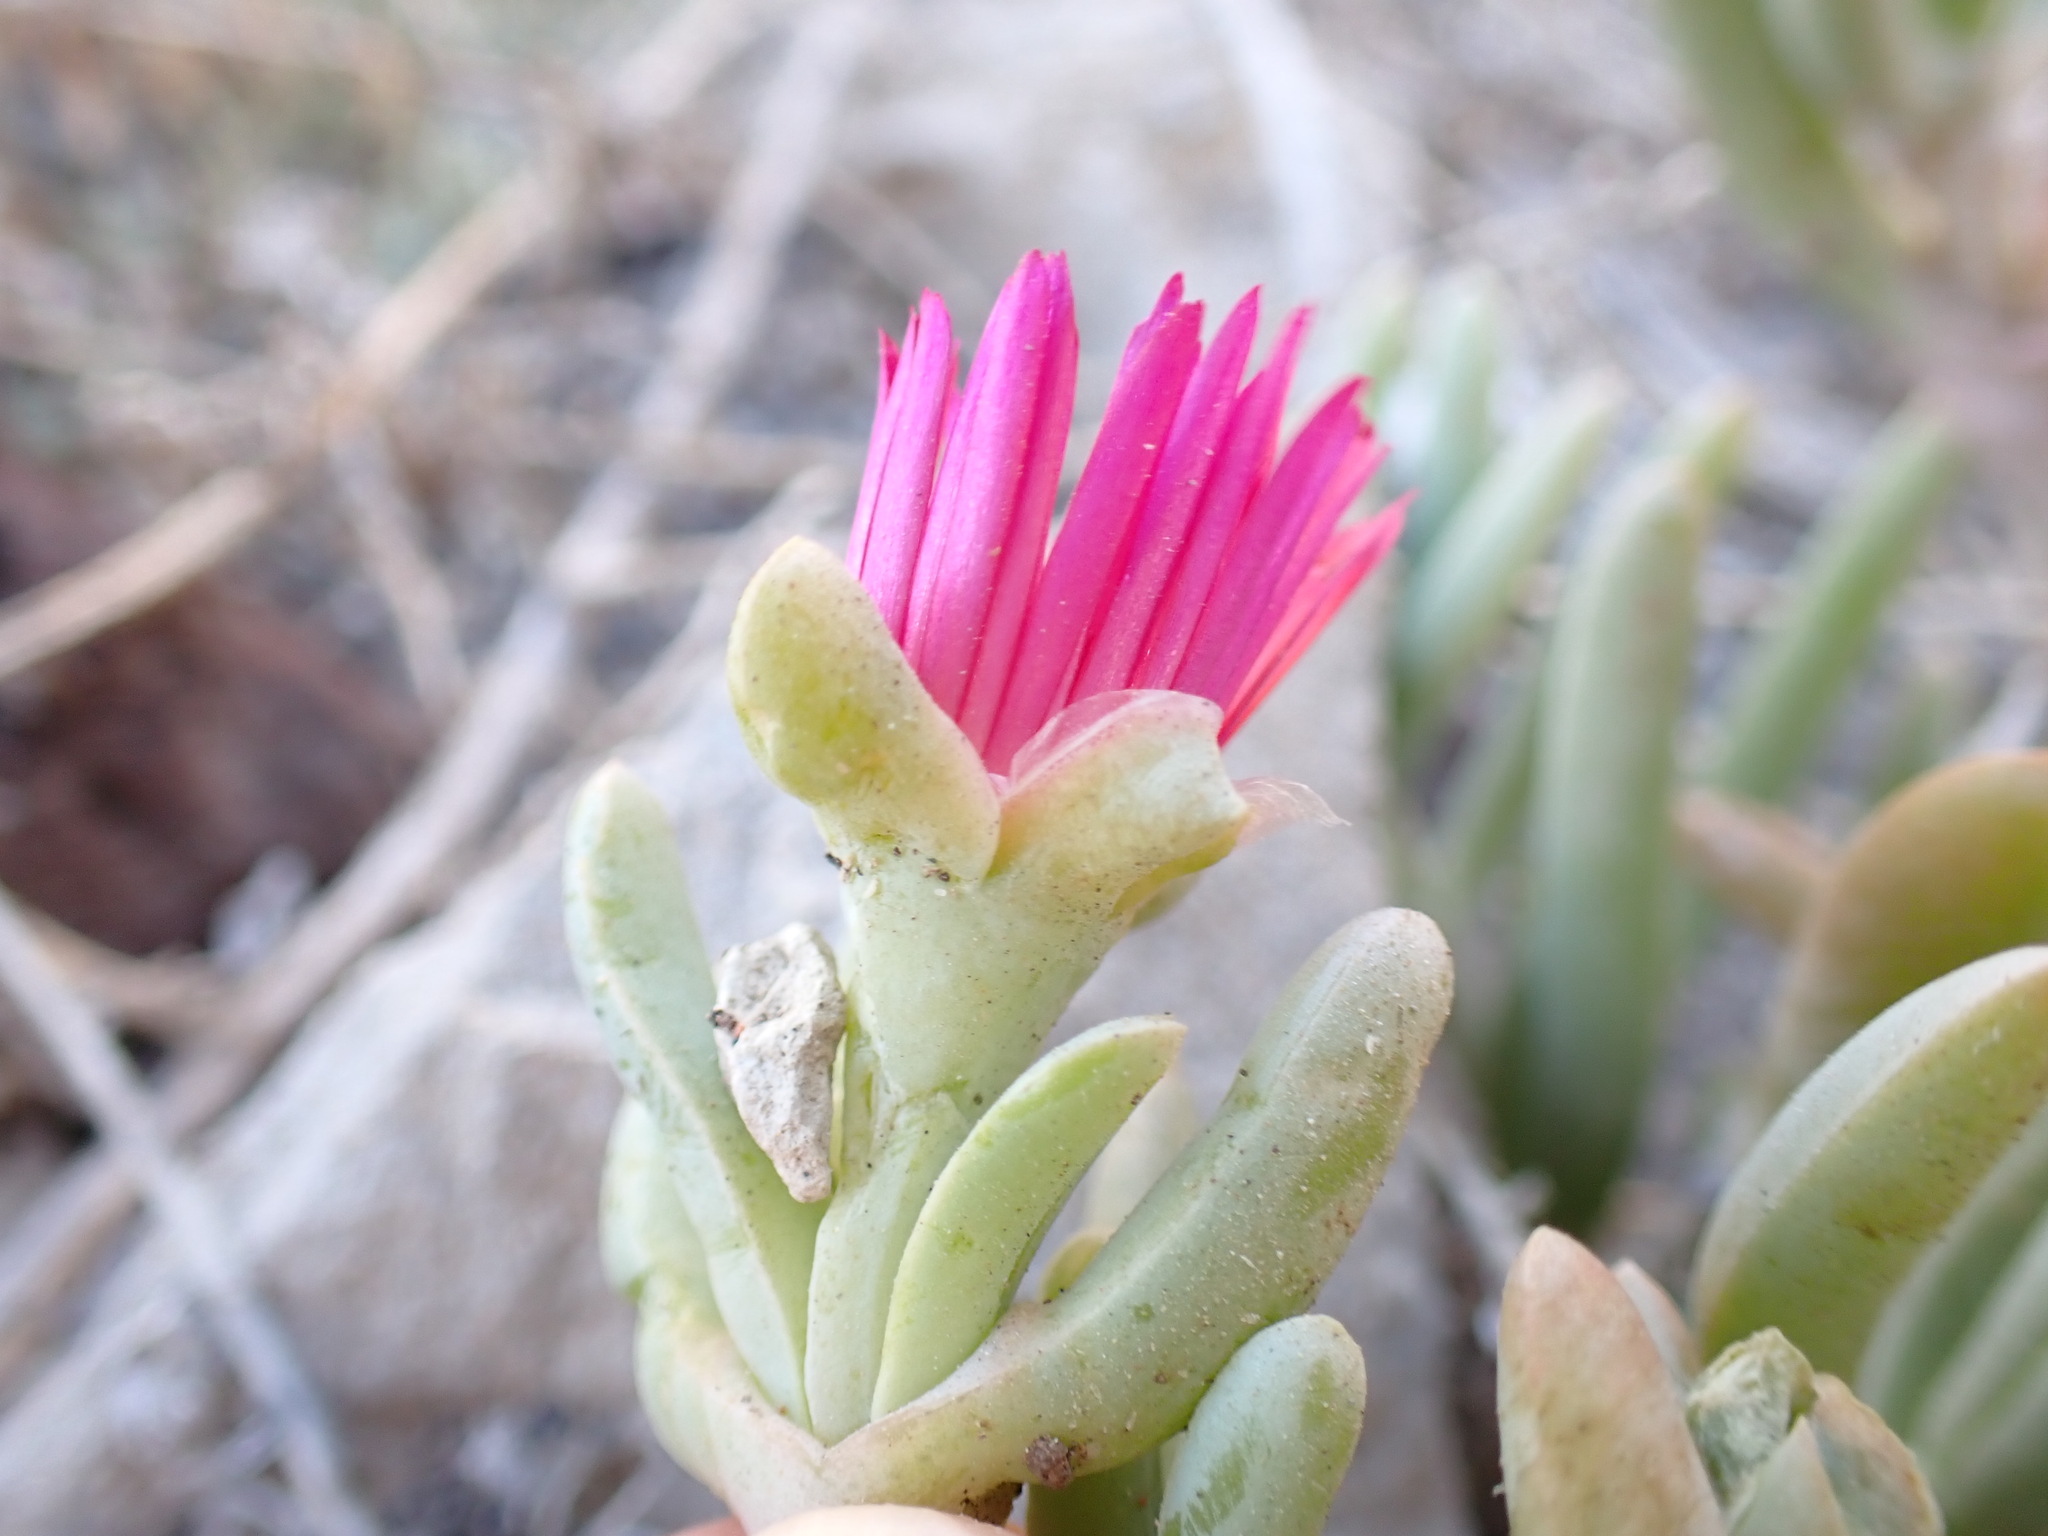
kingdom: Plantae
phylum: Tracheophyta
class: Magnoliopsida
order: Caryophyllales
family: Aizoaceae
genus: Malephora
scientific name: Malephora crocea
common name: Coppery mesemb
